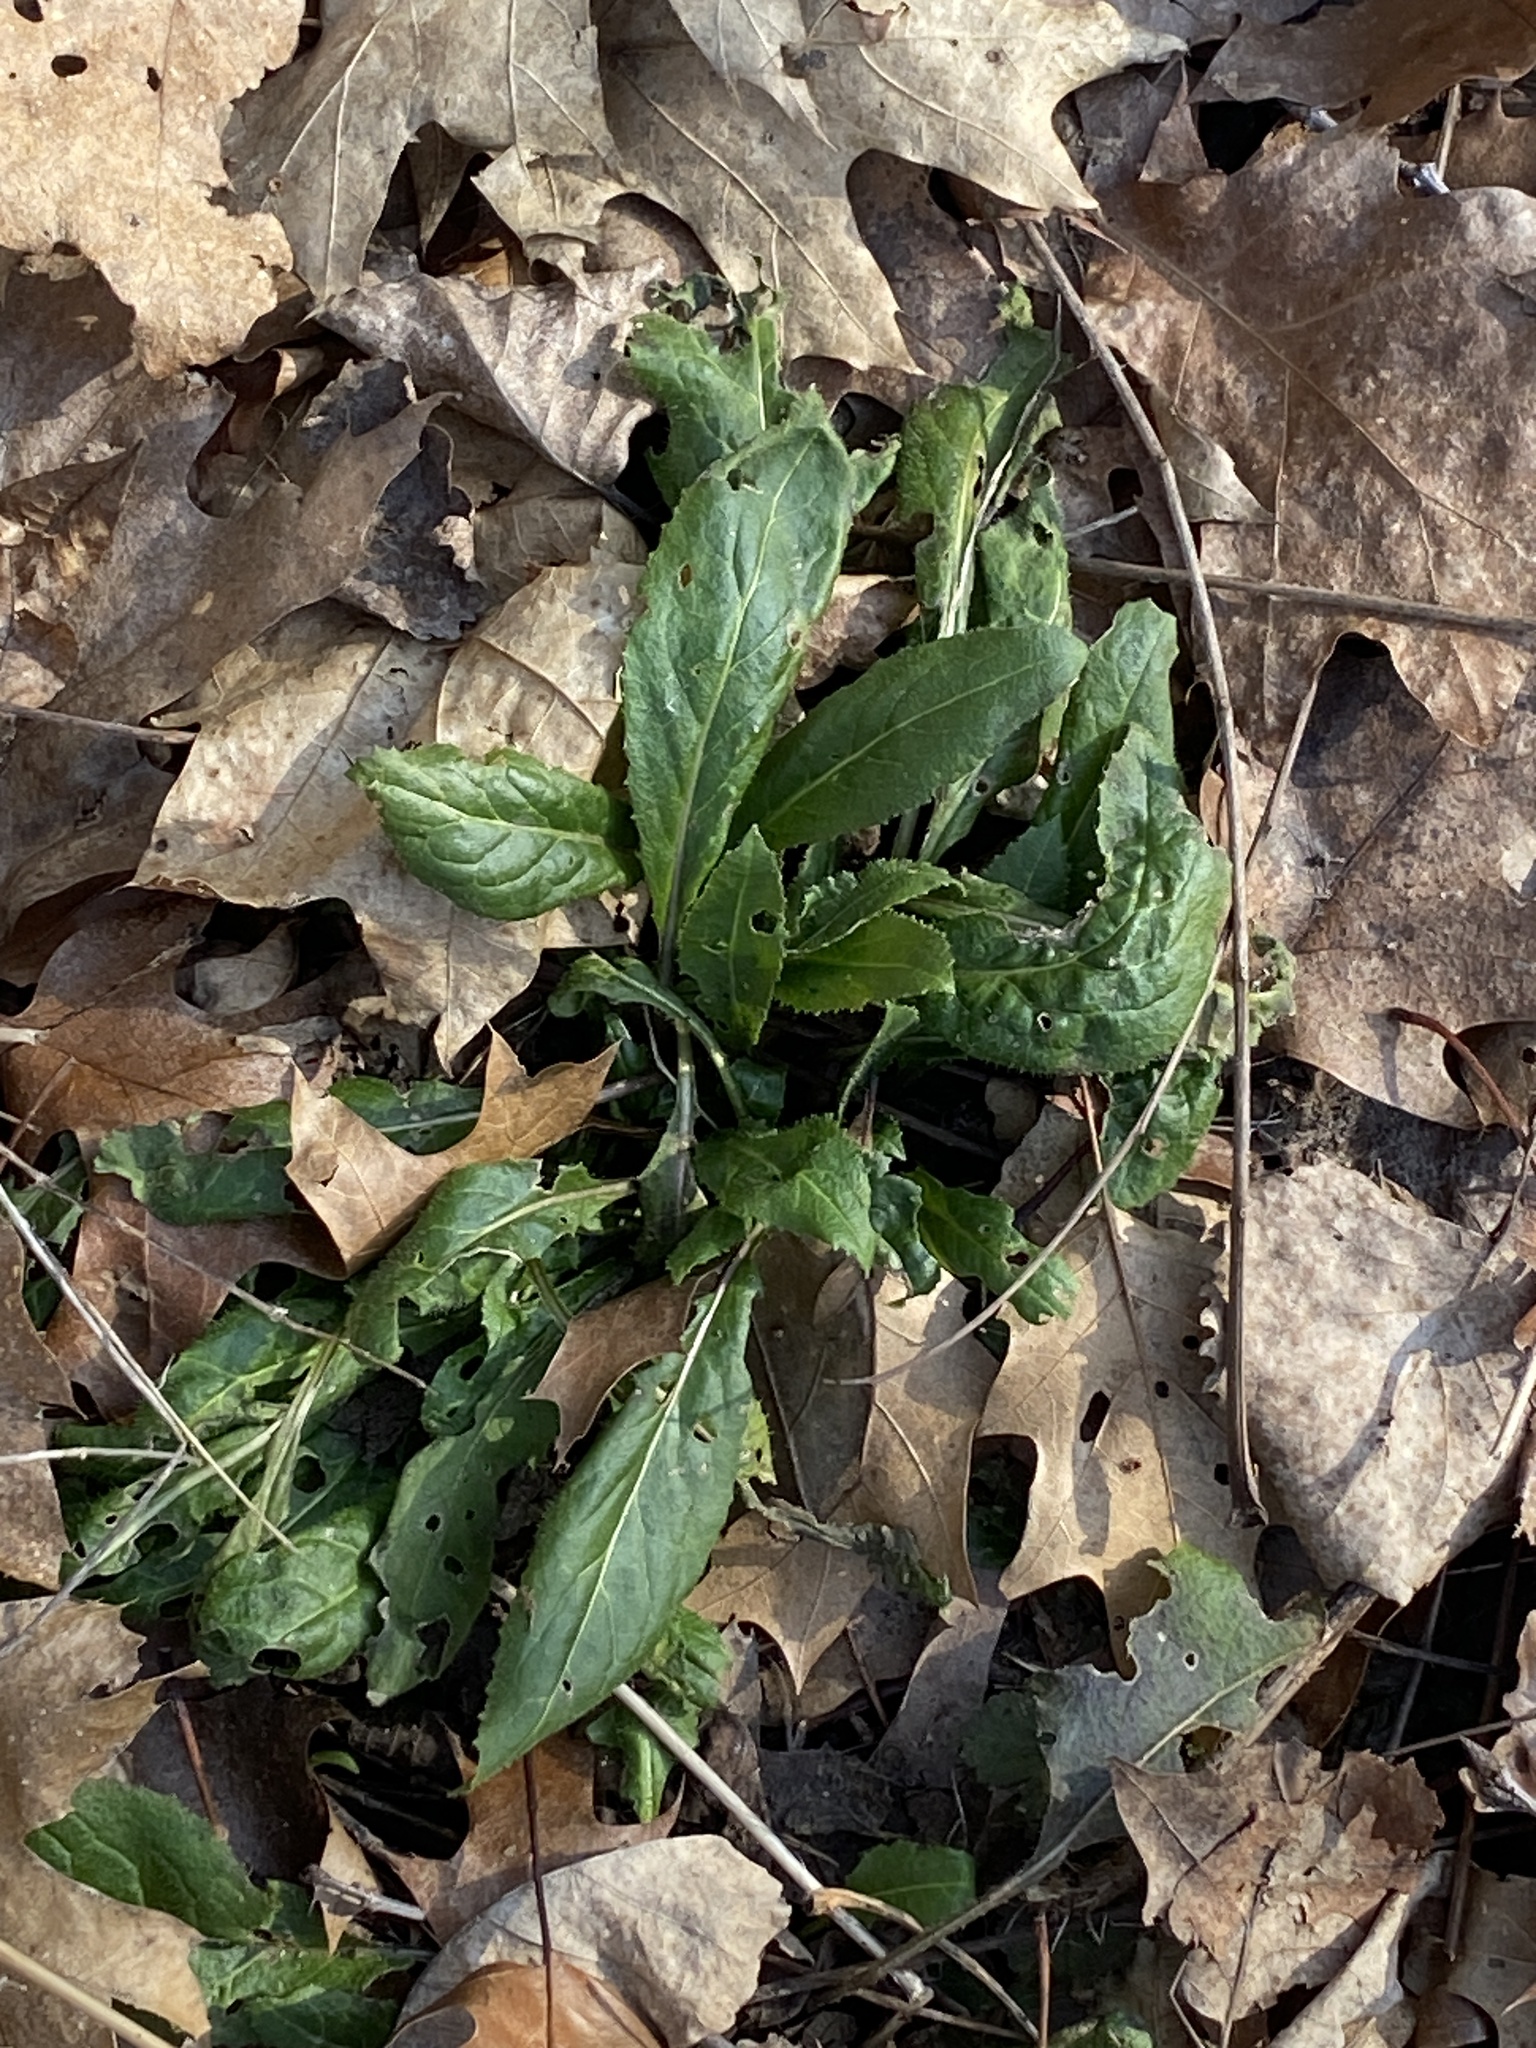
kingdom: Plantae
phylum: Tracheophyta
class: Magnoliopsida
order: Brassicales
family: Brassicaceae
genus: Hesperis
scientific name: Hesperis matronalis
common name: Dame's-violet
